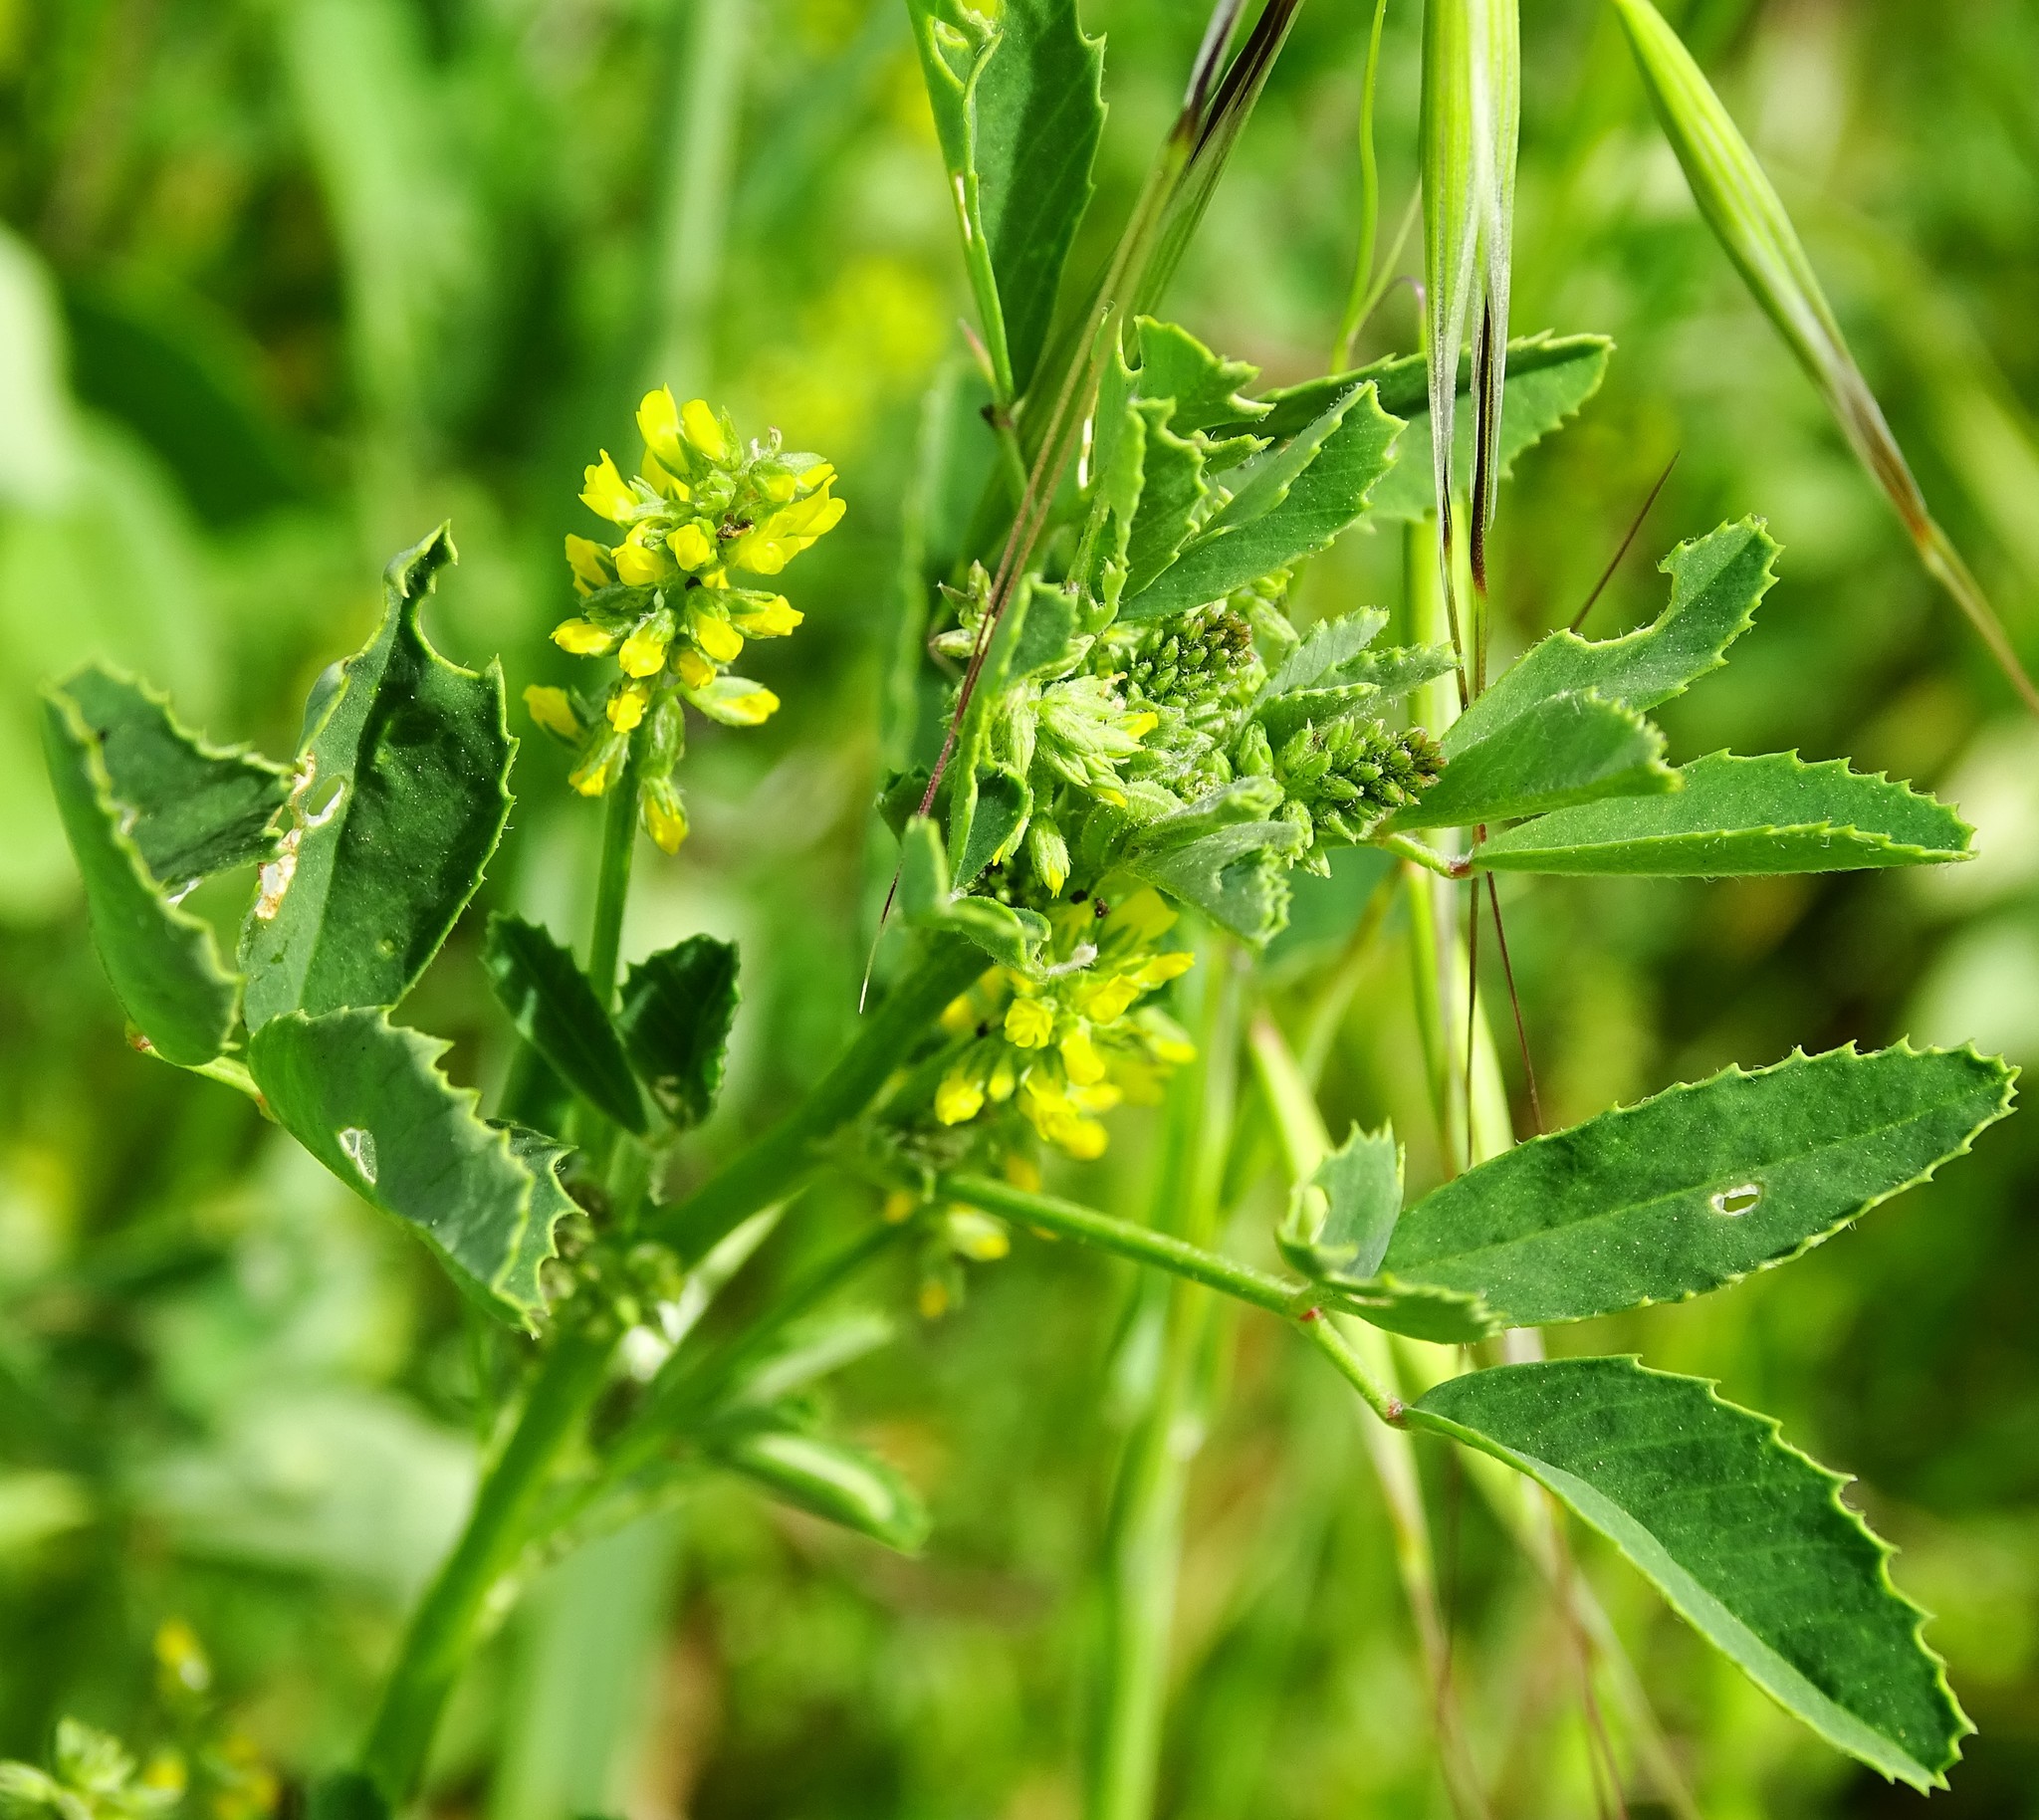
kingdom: Plantae
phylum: Tracheophyta
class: Magnoliopsida
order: Fabales
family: Fabaceae
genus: Melilotus
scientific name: Melilotus indicus
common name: Small melilot
